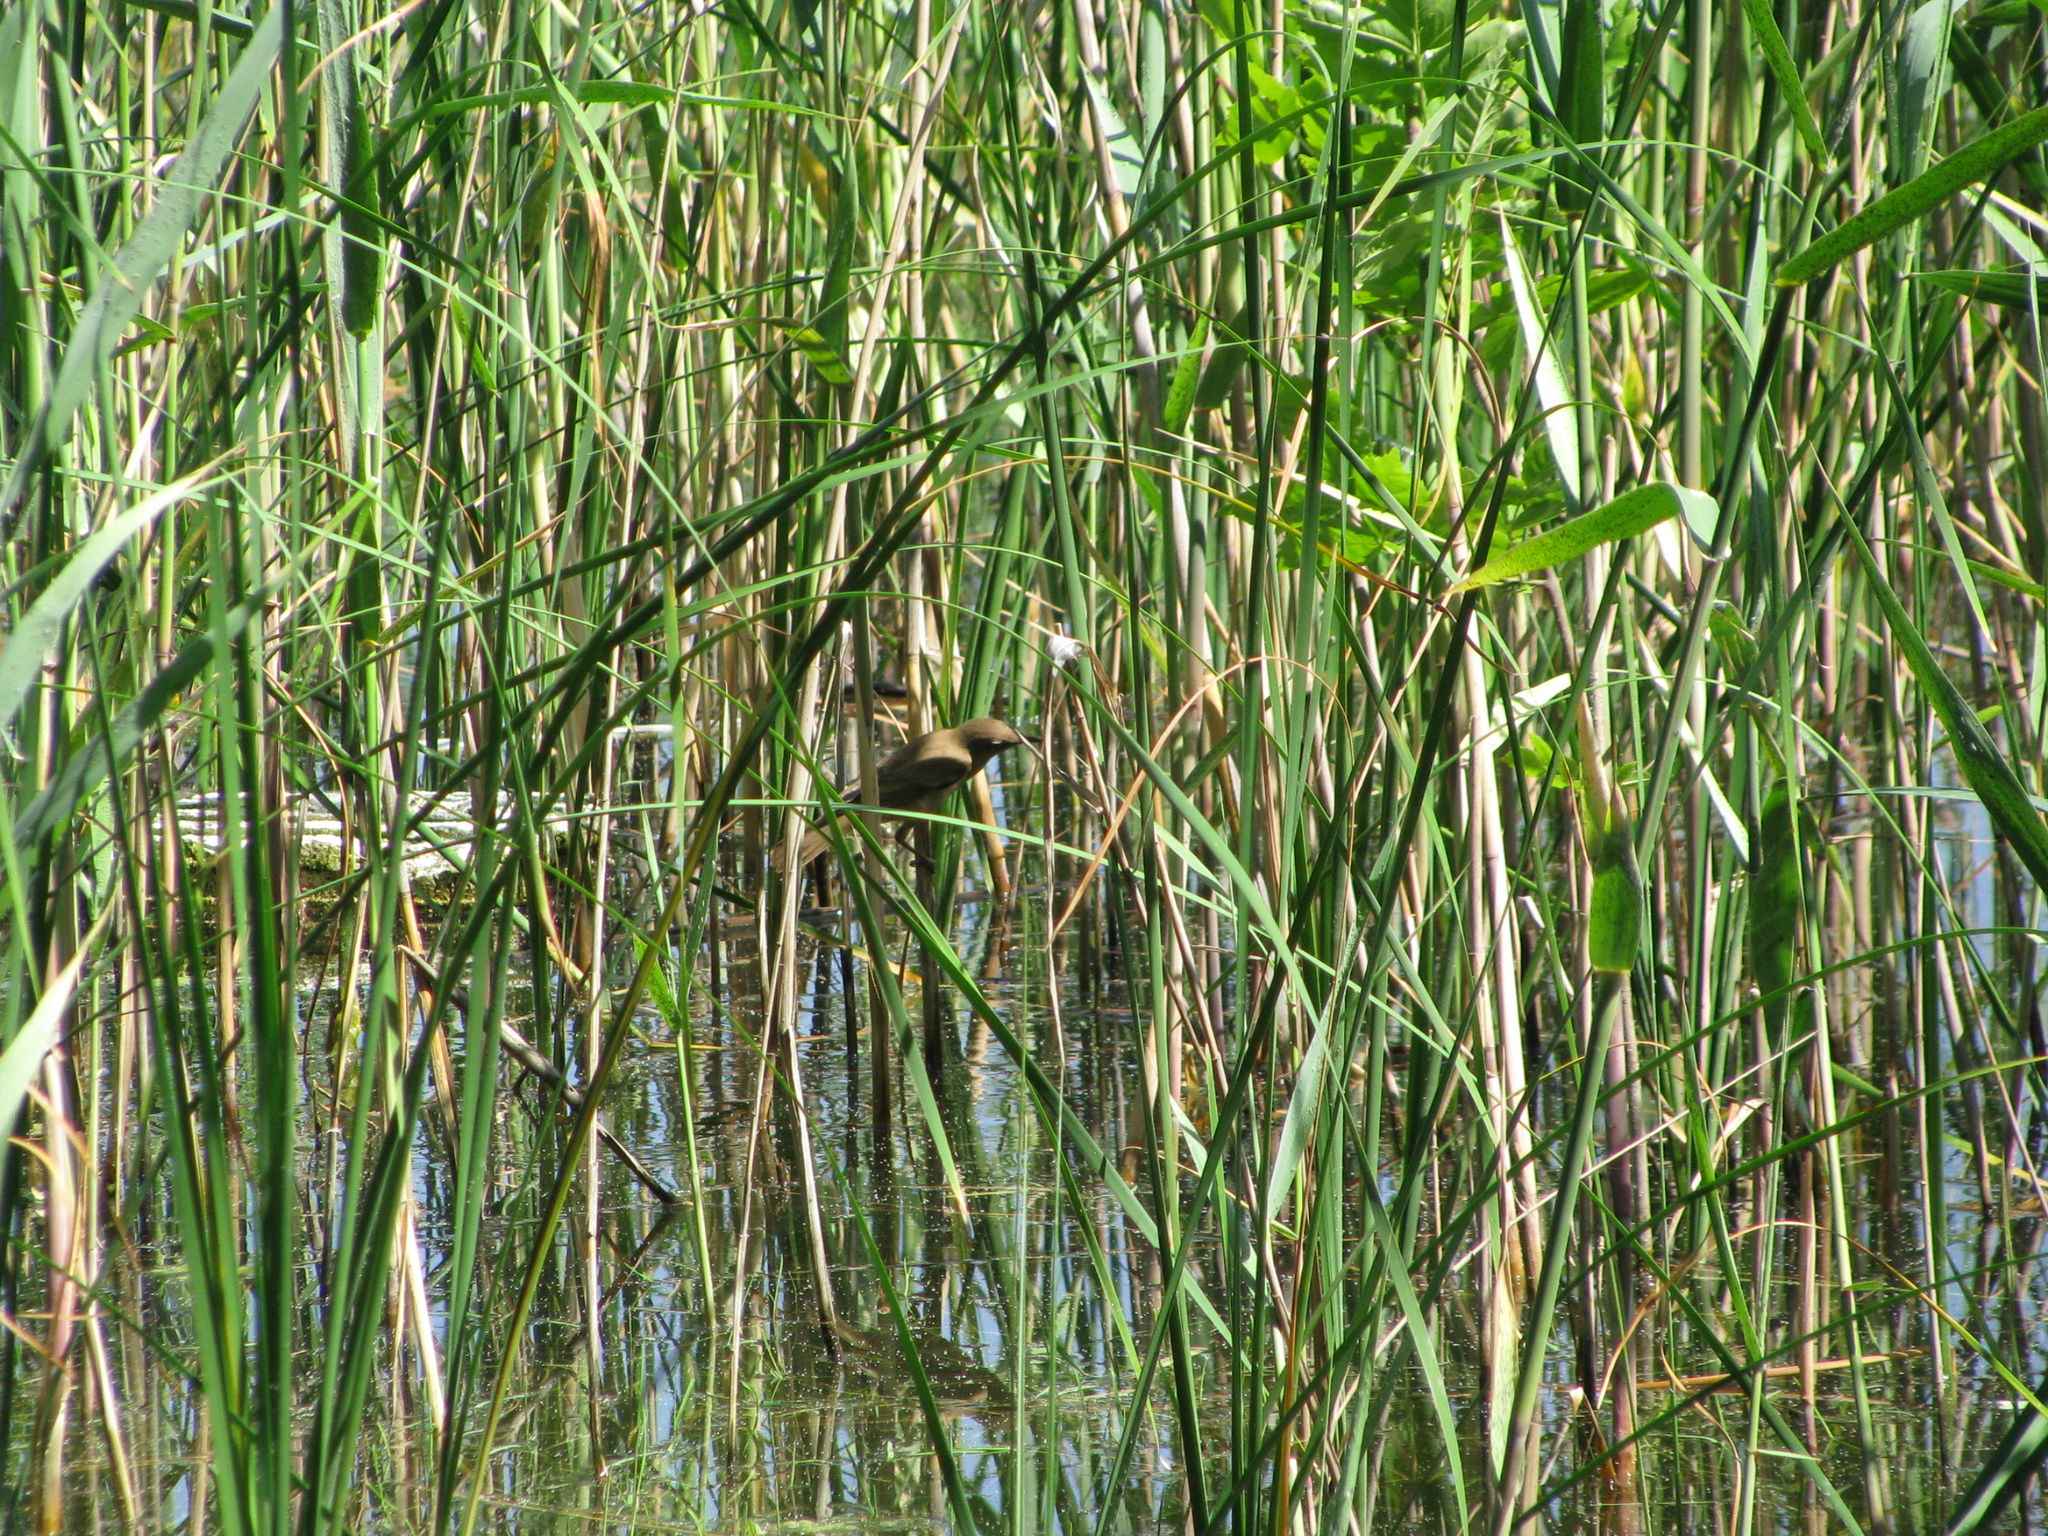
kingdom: Animalia
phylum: Chordata
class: Aves
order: Passeriformes
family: Acrocephalidae
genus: Acrocephalus
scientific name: Acrocephalus arundinaceus
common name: Great reed warbler
